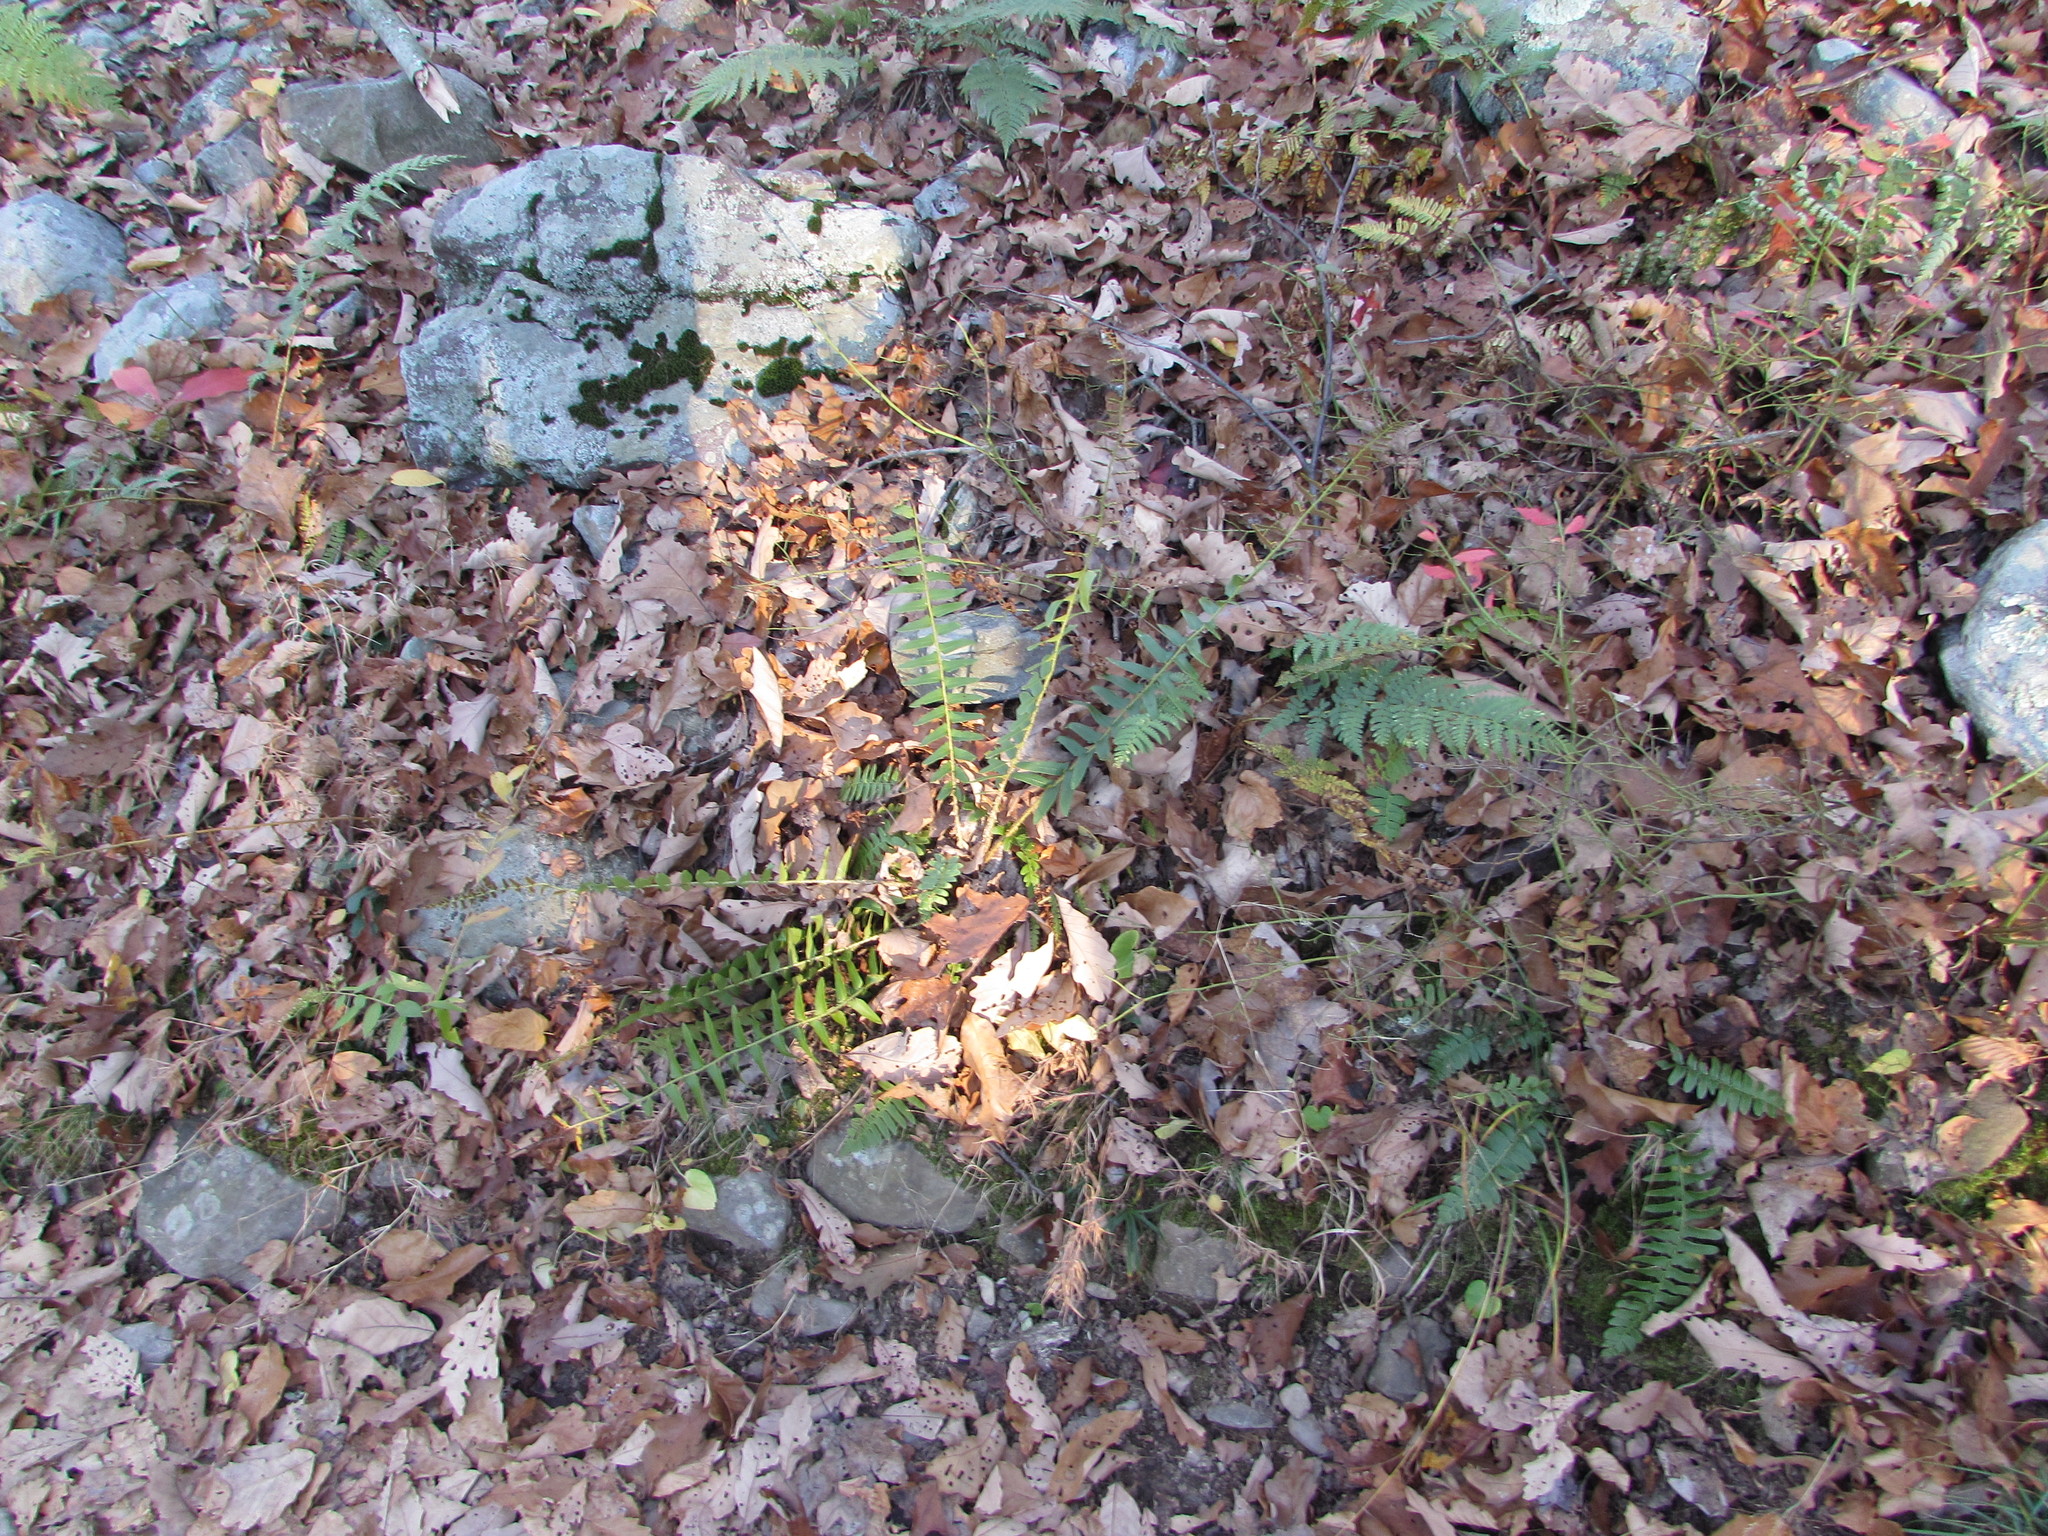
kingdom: Plantae
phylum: Tracheophyta
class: Polypodiopsida
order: Polypodiales
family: Dryopteridaceae
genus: Polystichum
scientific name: Polystichum acrostichoides
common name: Christmas fern
